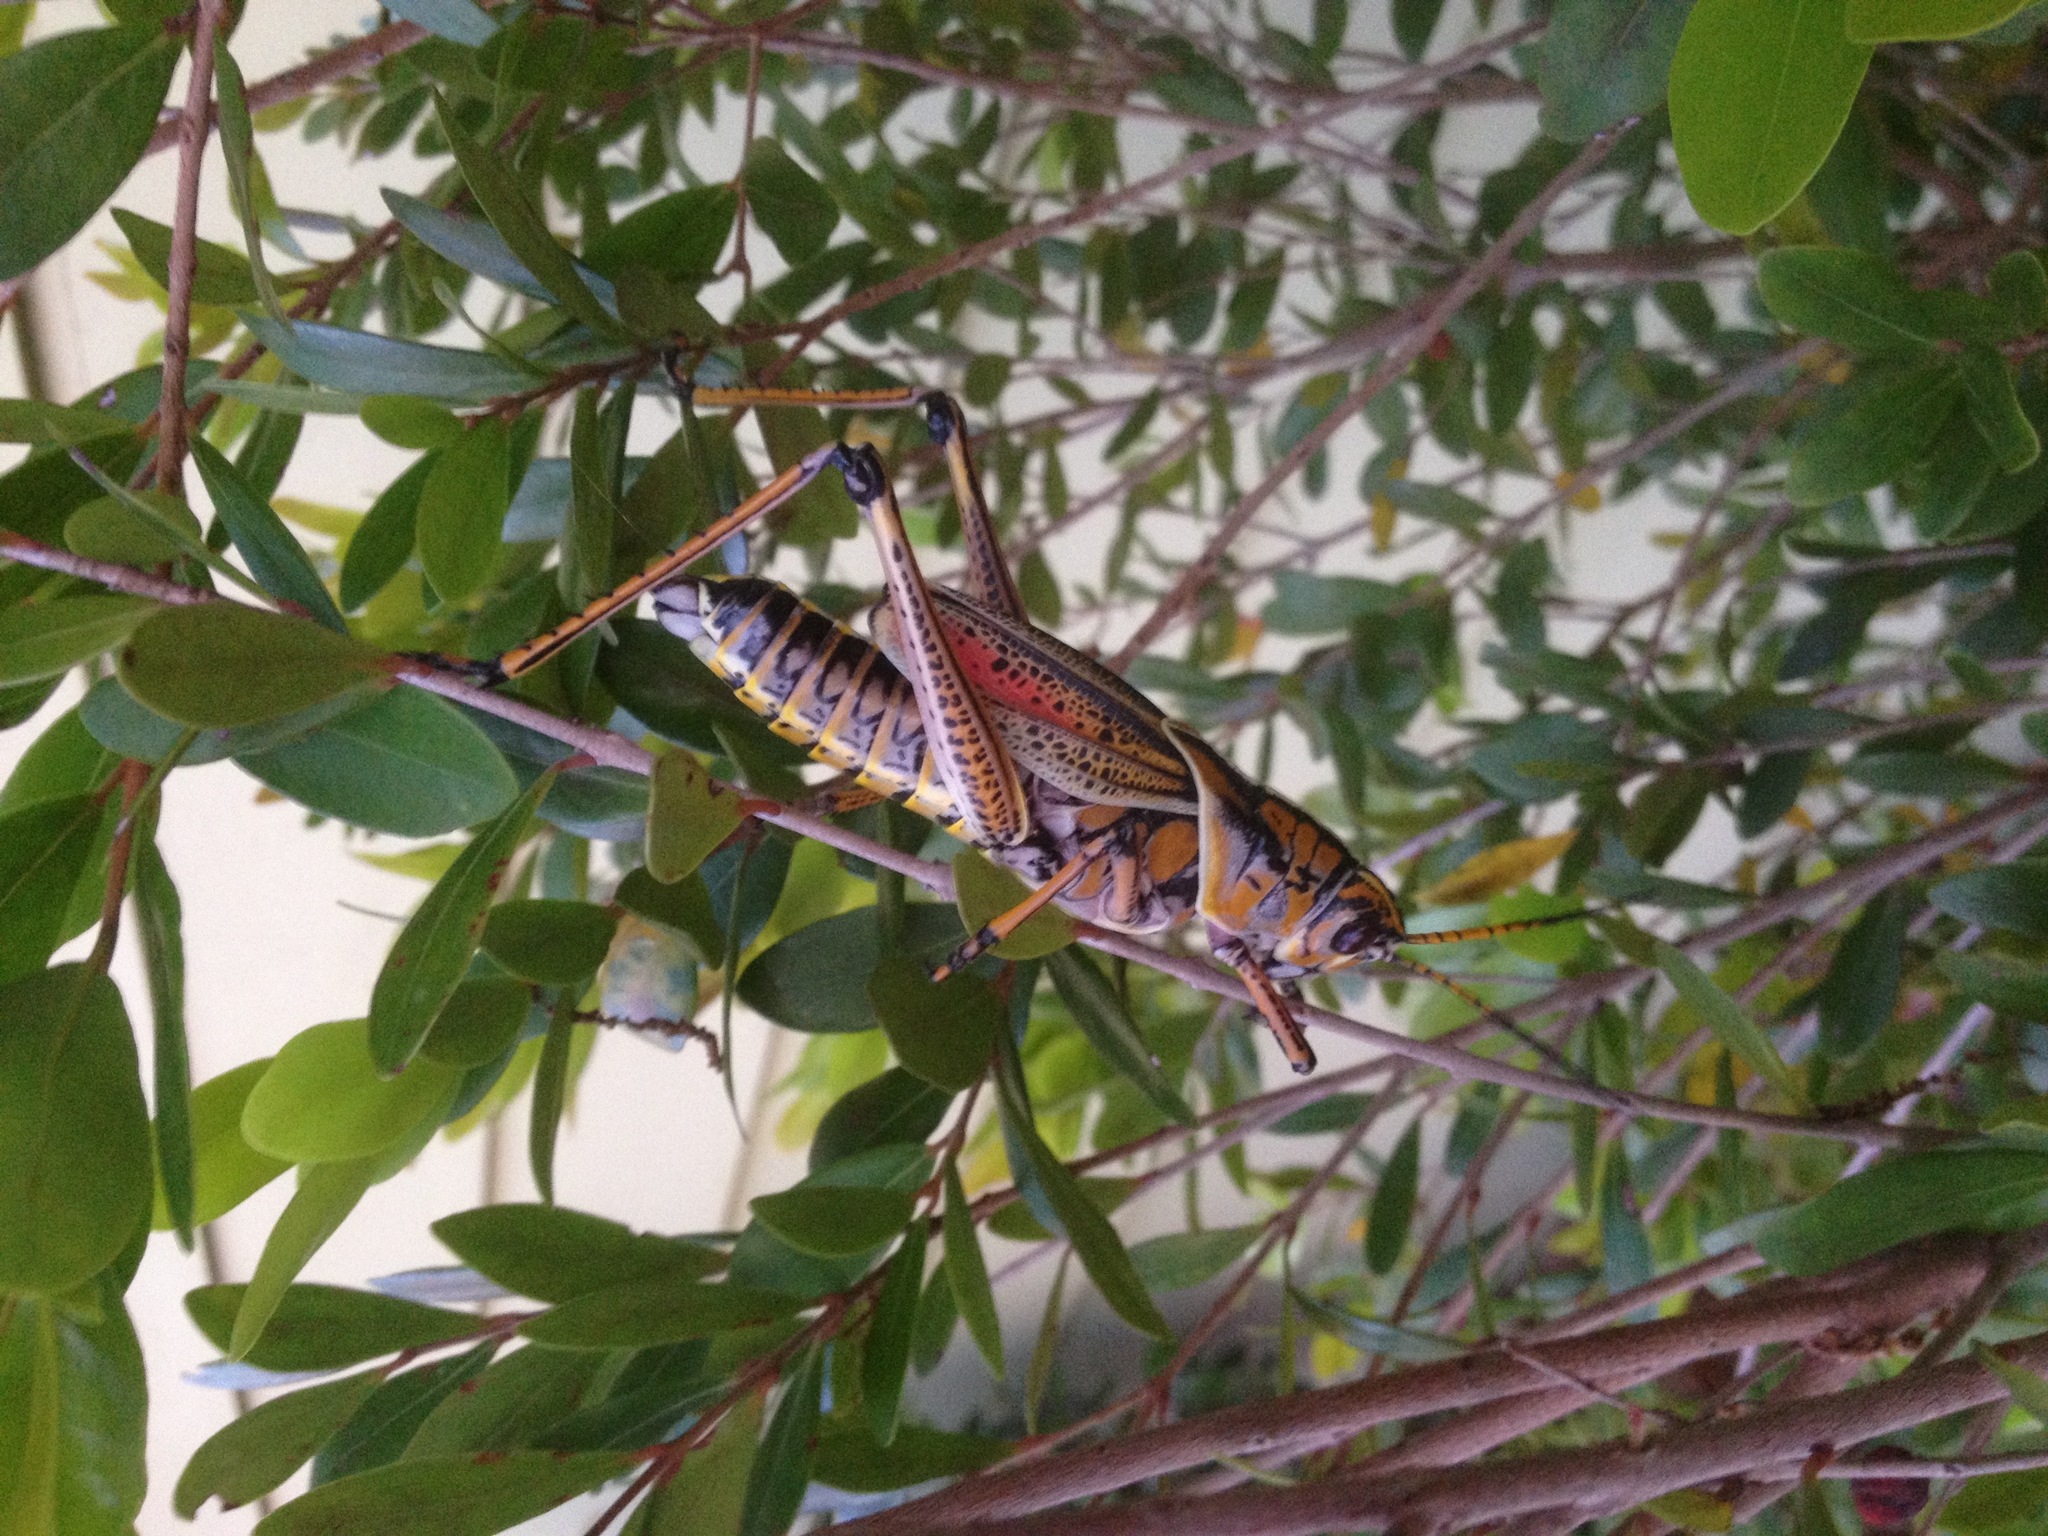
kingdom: Animalia
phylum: Arthropoda
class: Insecta
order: Orthoptera
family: Romaleidae
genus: Romalea
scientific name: Romalea microptera
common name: Eastern lubber grasshopper
